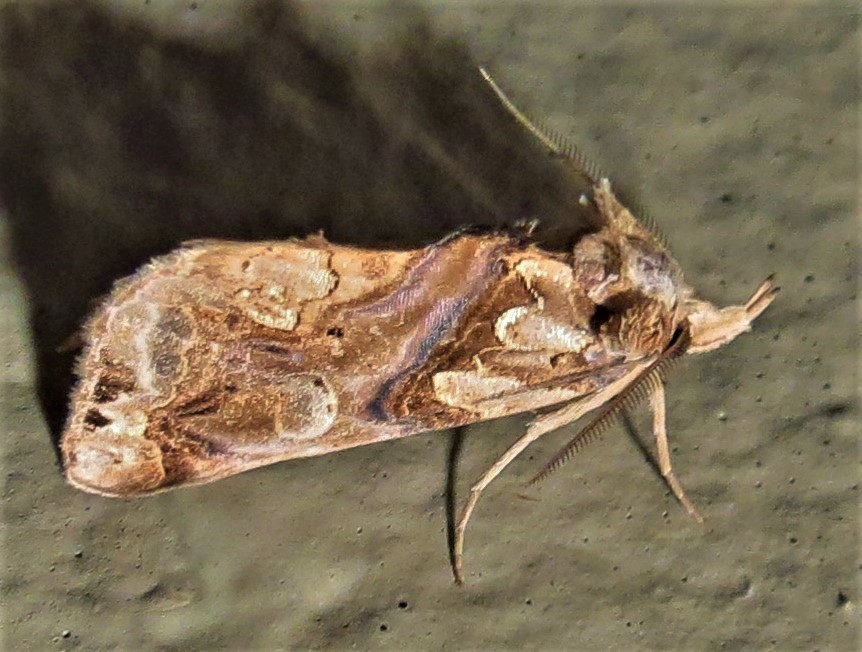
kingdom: Animalia
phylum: Arthropoda
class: Insecta
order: Lepidoptera
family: Erebidae
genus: Plusiodonta
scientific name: Plusiodonta compressipalpis
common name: Moonseed moth
